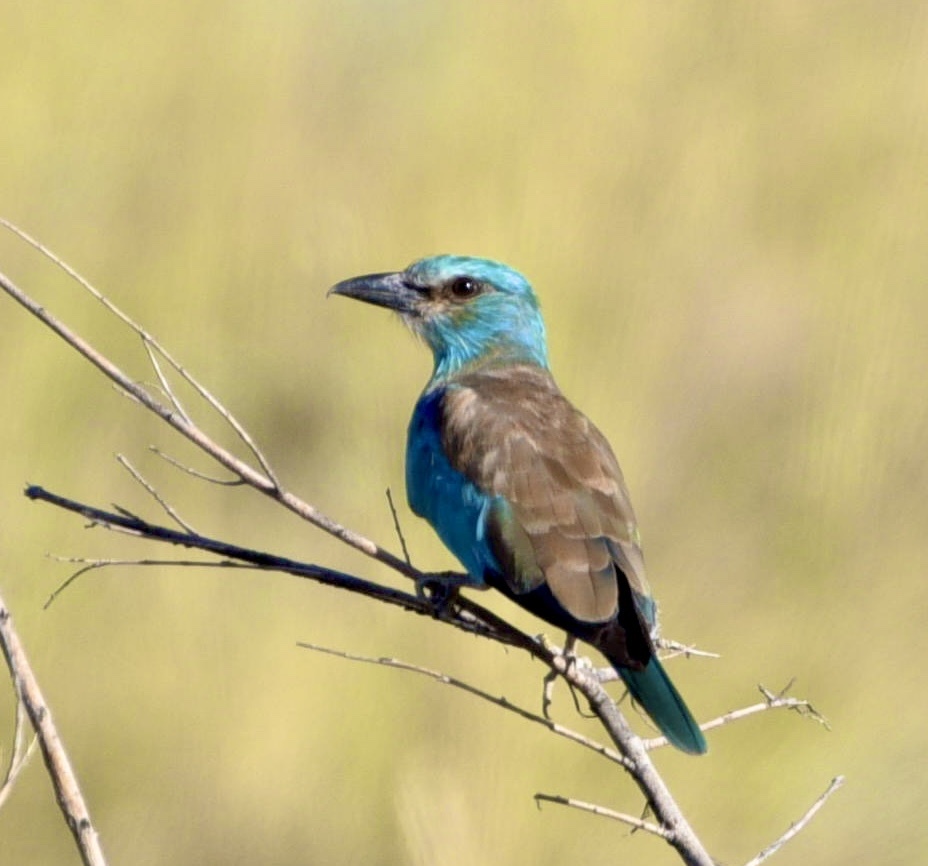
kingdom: Animalia
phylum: Chordata
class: Aves
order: Coraciiformes
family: Coraciidae
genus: Coracias
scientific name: Coracias garrulus
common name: European roller
